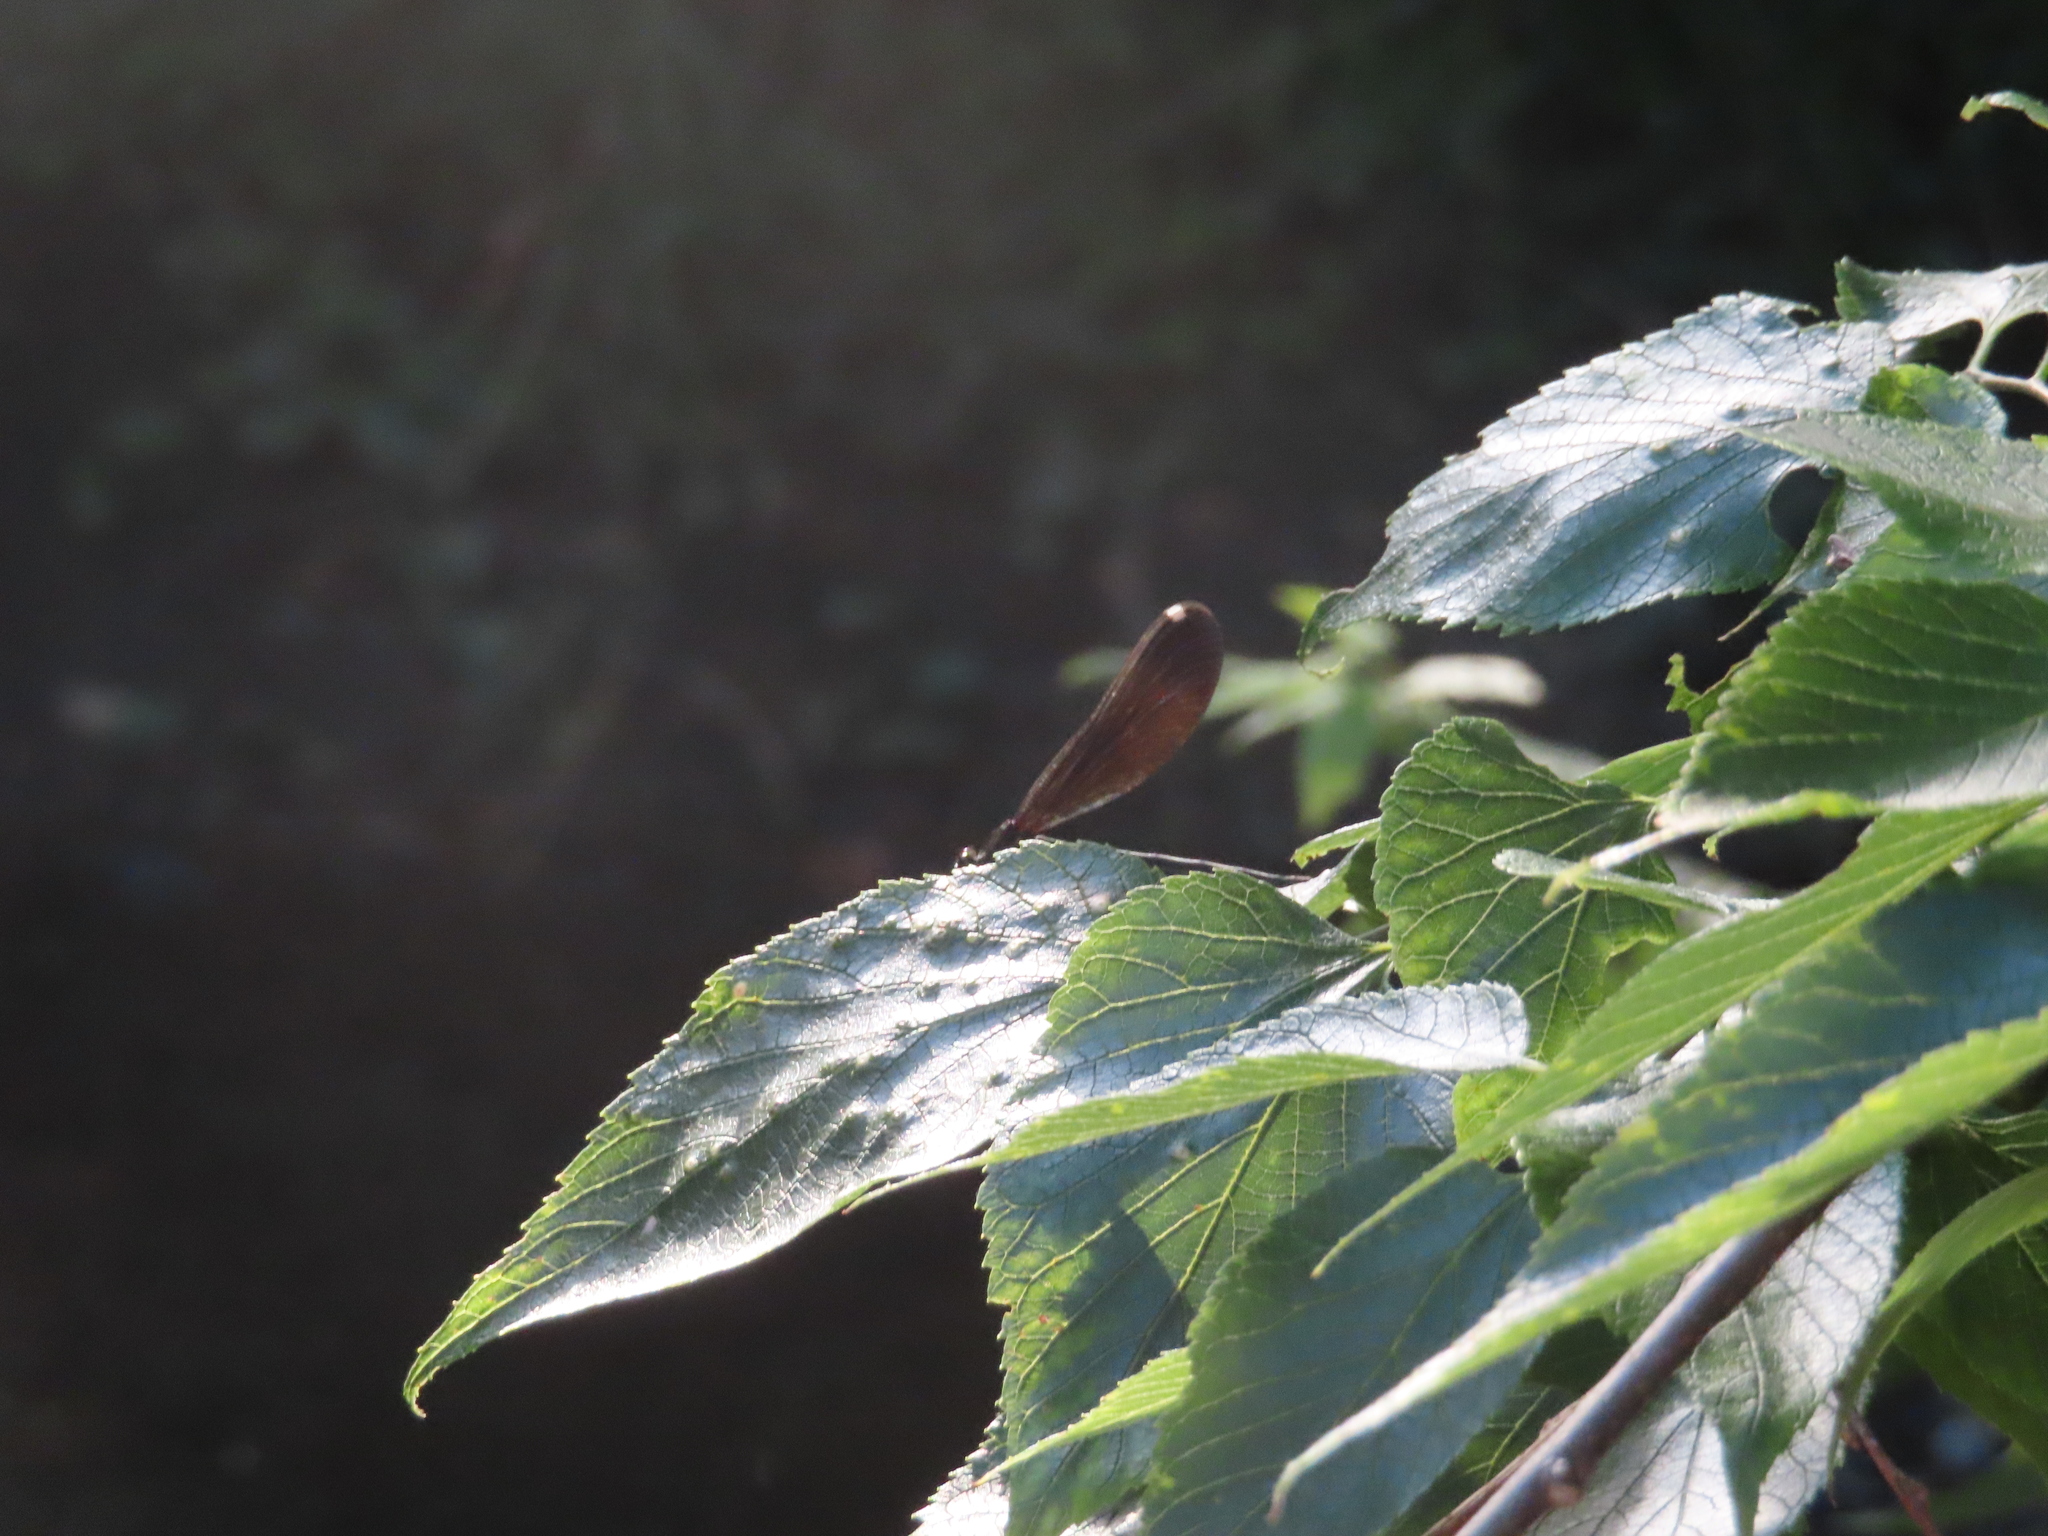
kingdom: Animalia
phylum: Arthropoda
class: Insecta
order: Odonata
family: Calopterygidae
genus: Calopteryx
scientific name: Calopteryx aequabilis
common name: River jewelwing
